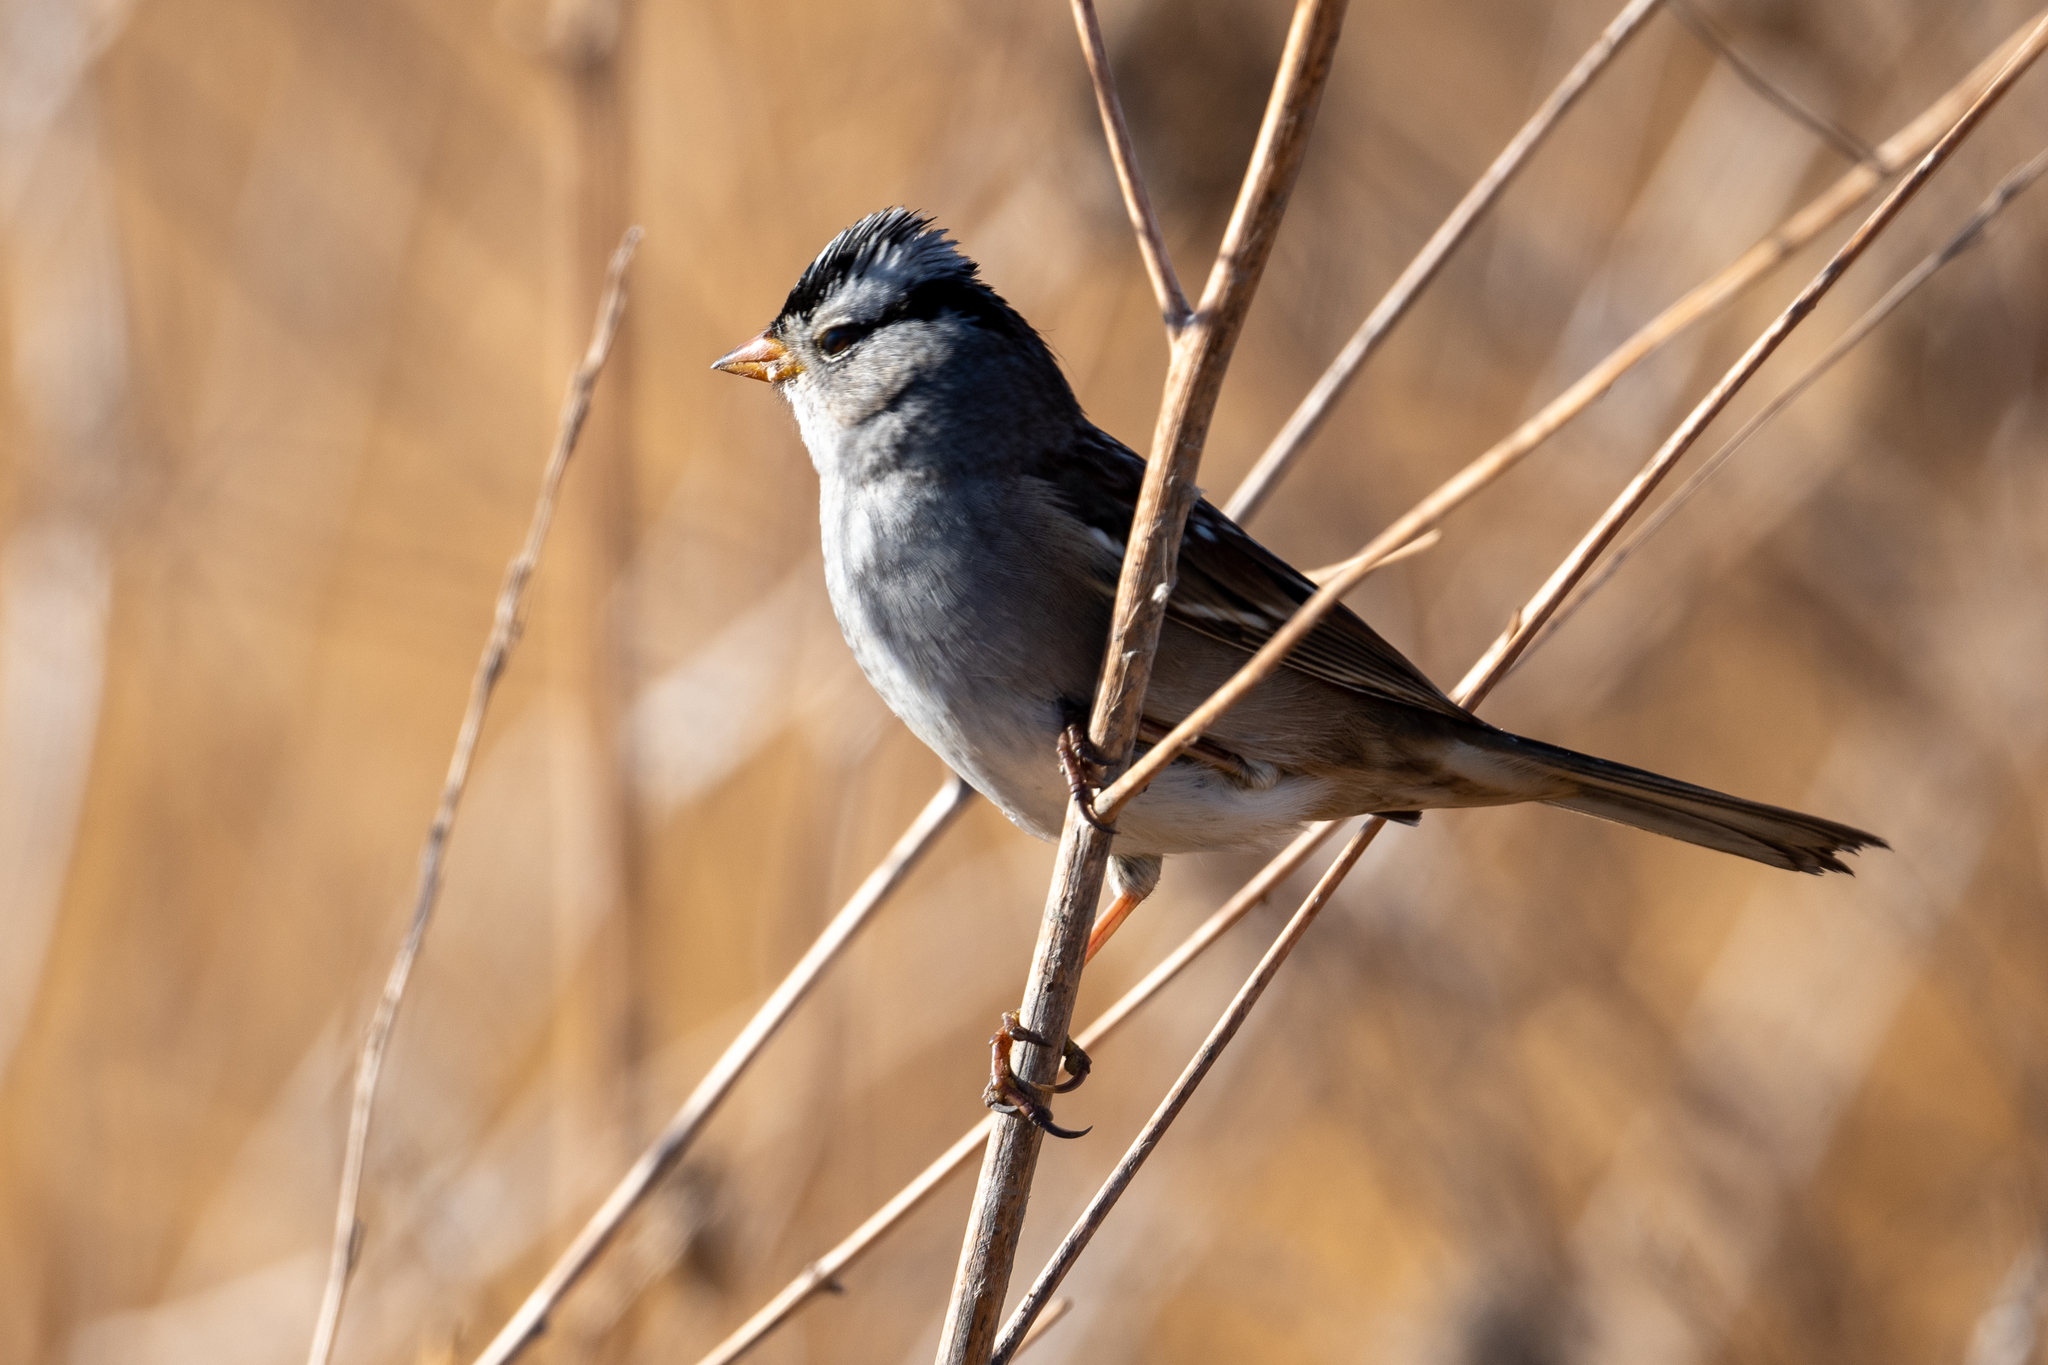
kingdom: Animalia
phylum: Chordata
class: Aves
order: Passeriformes
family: Passerellidae
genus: Zonotrichia
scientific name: Zonotrichia leucophrys
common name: White-crowned sparrow
